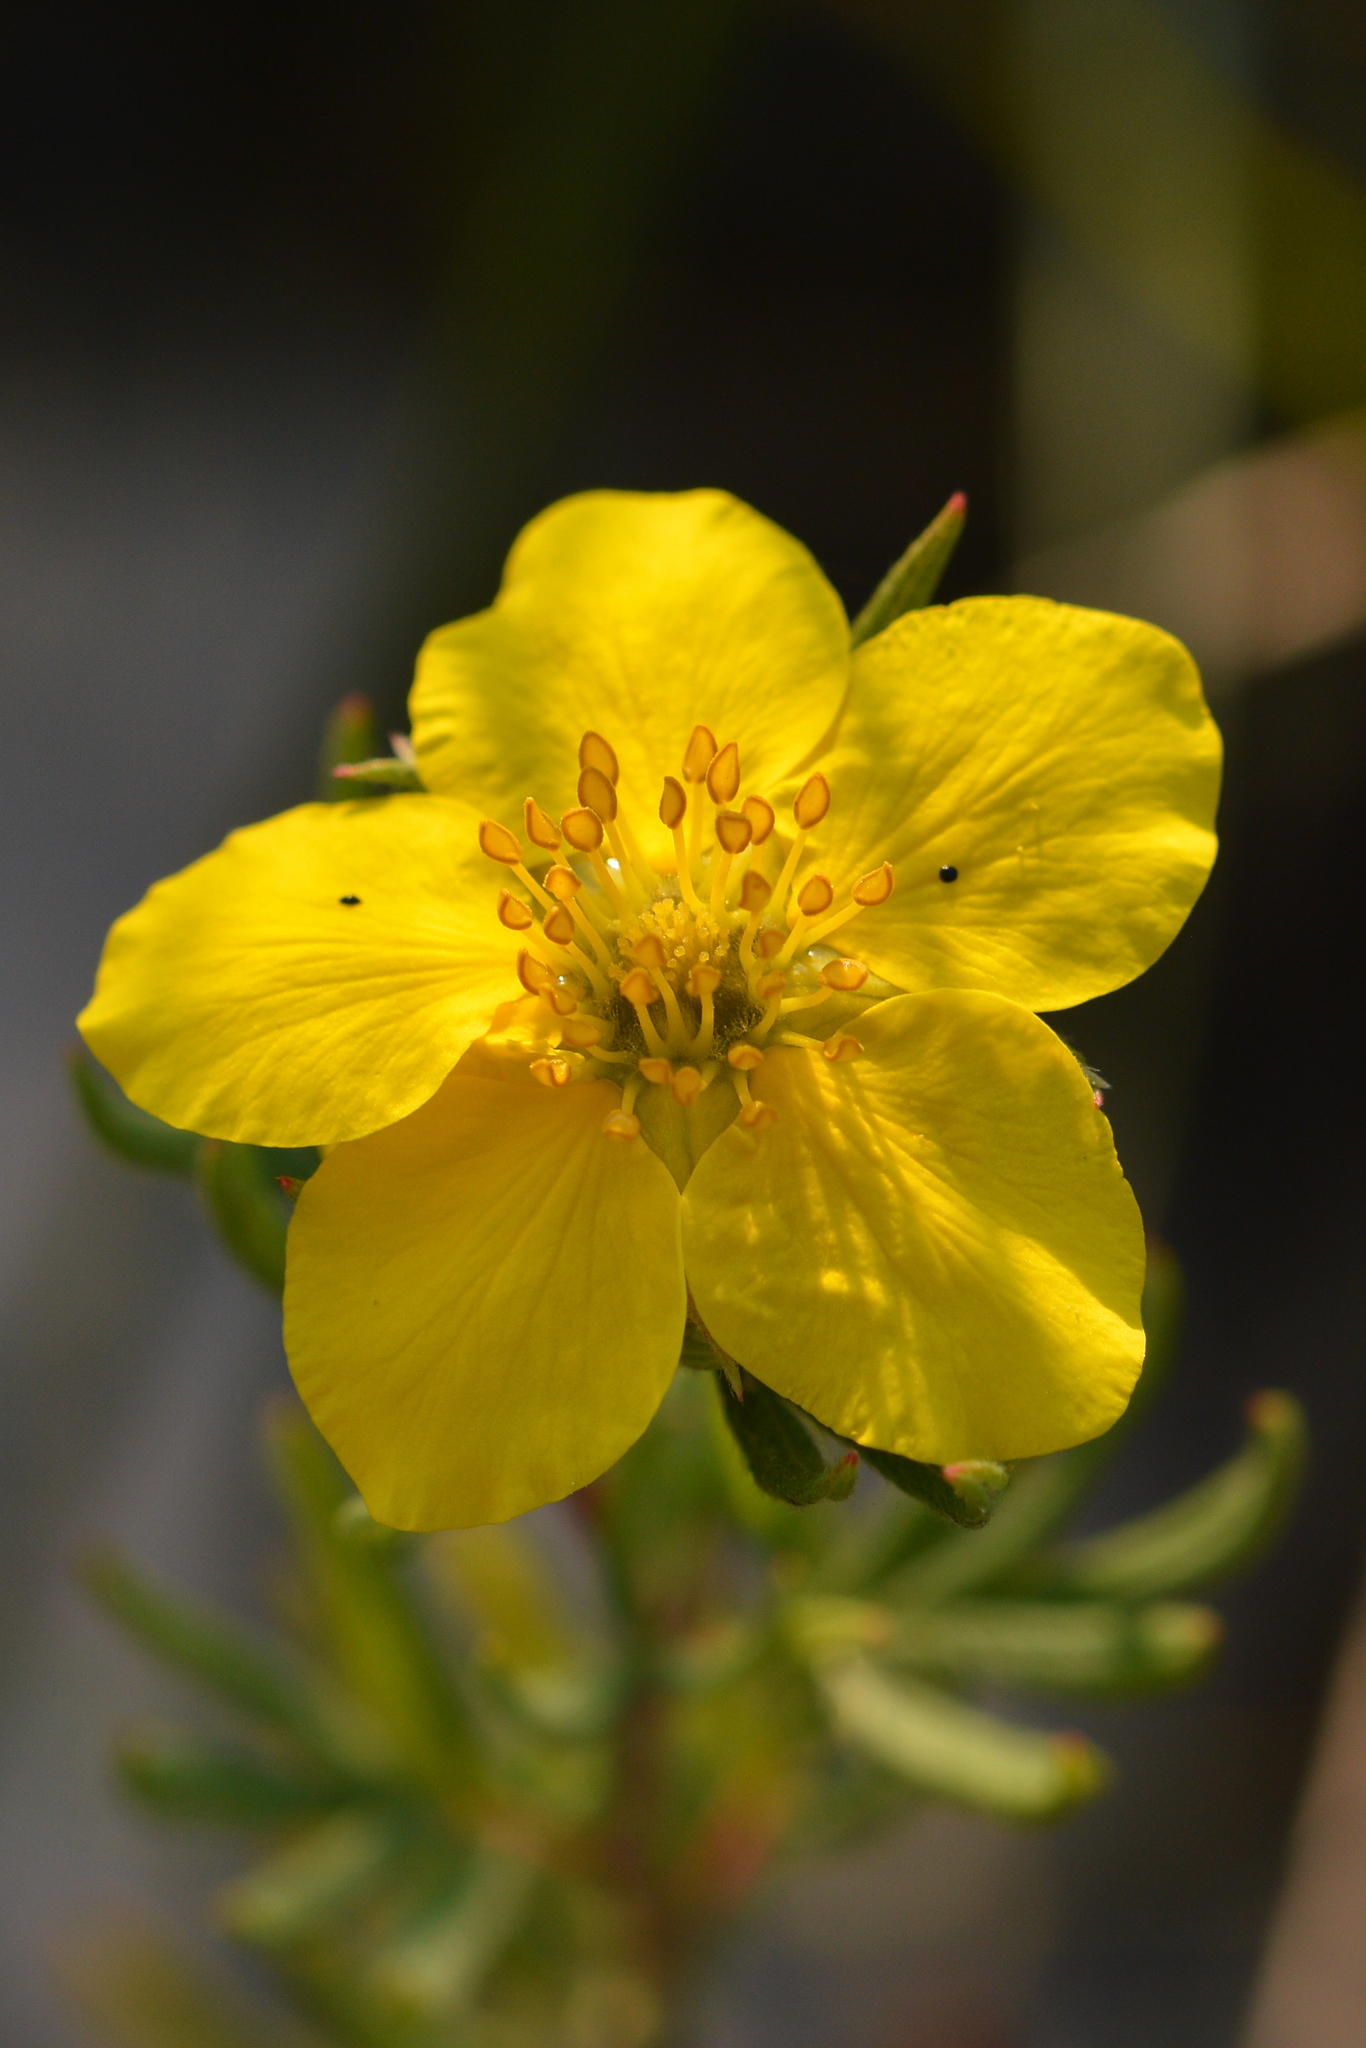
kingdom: Plantae
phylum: Tracheophyta
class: Magnoliopsida
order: Rosales
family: Rosaceae
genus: Dasiphora
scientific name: Dasiphora fruticosa
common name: Shrubby cinquefoil
